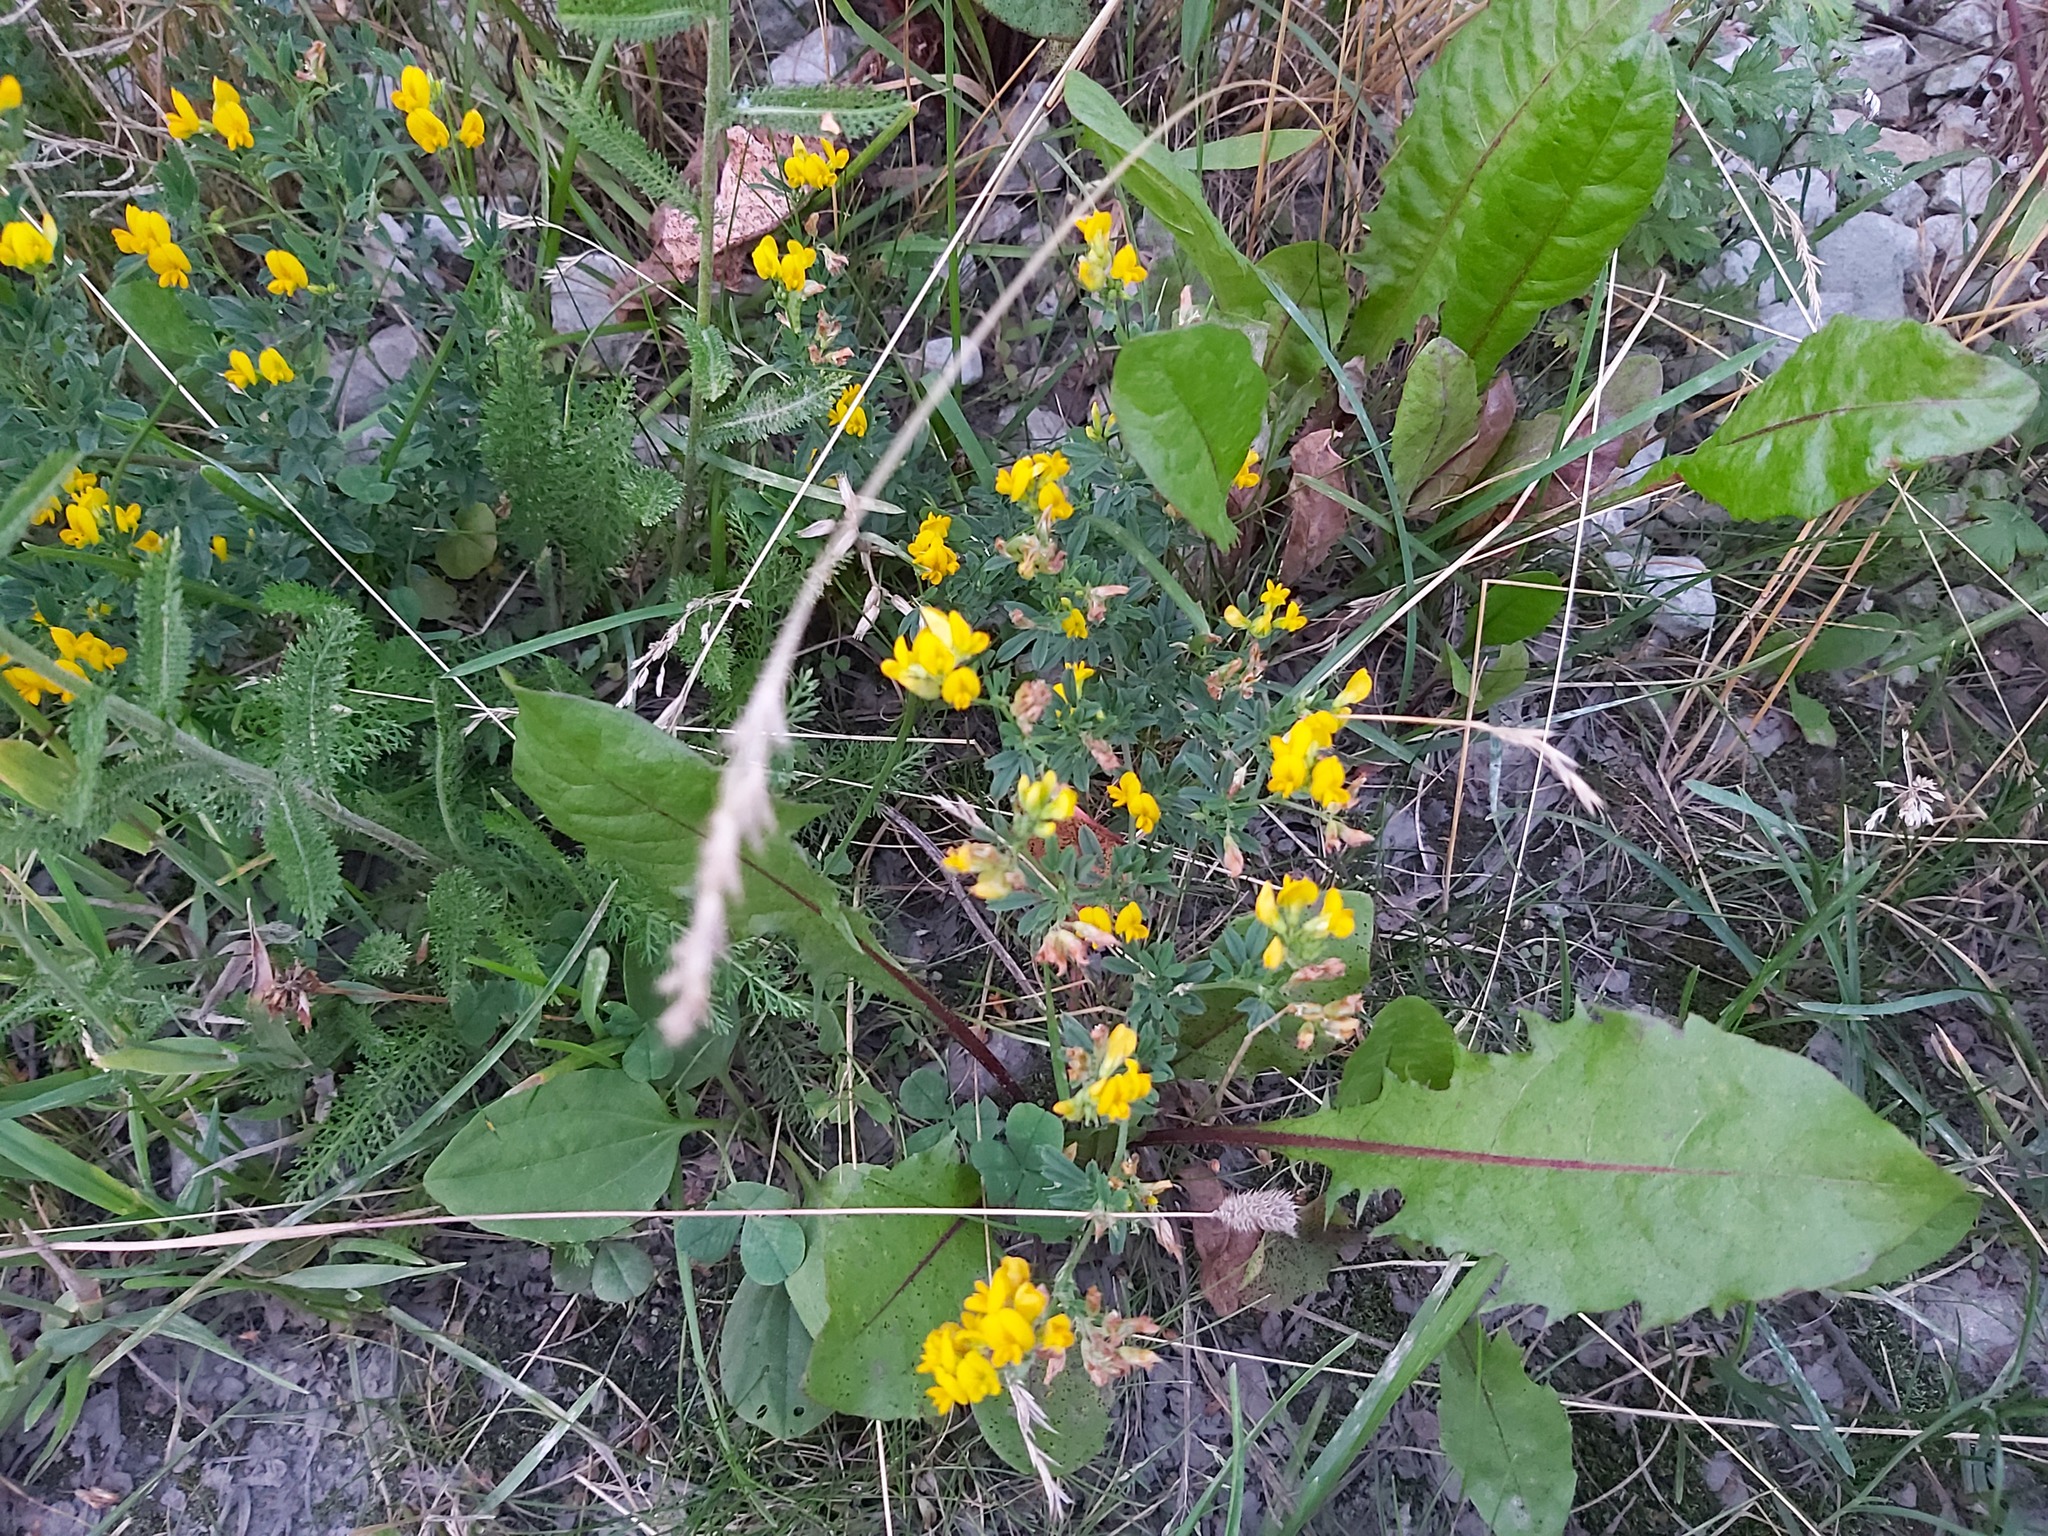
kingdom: Plantae
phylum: Tracheophyta
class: Magnoliopsida
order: Fabales
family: Fabaceae
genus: Lotus
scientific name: Lotus corniculatus
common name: Common bird's-foot-trefoil
